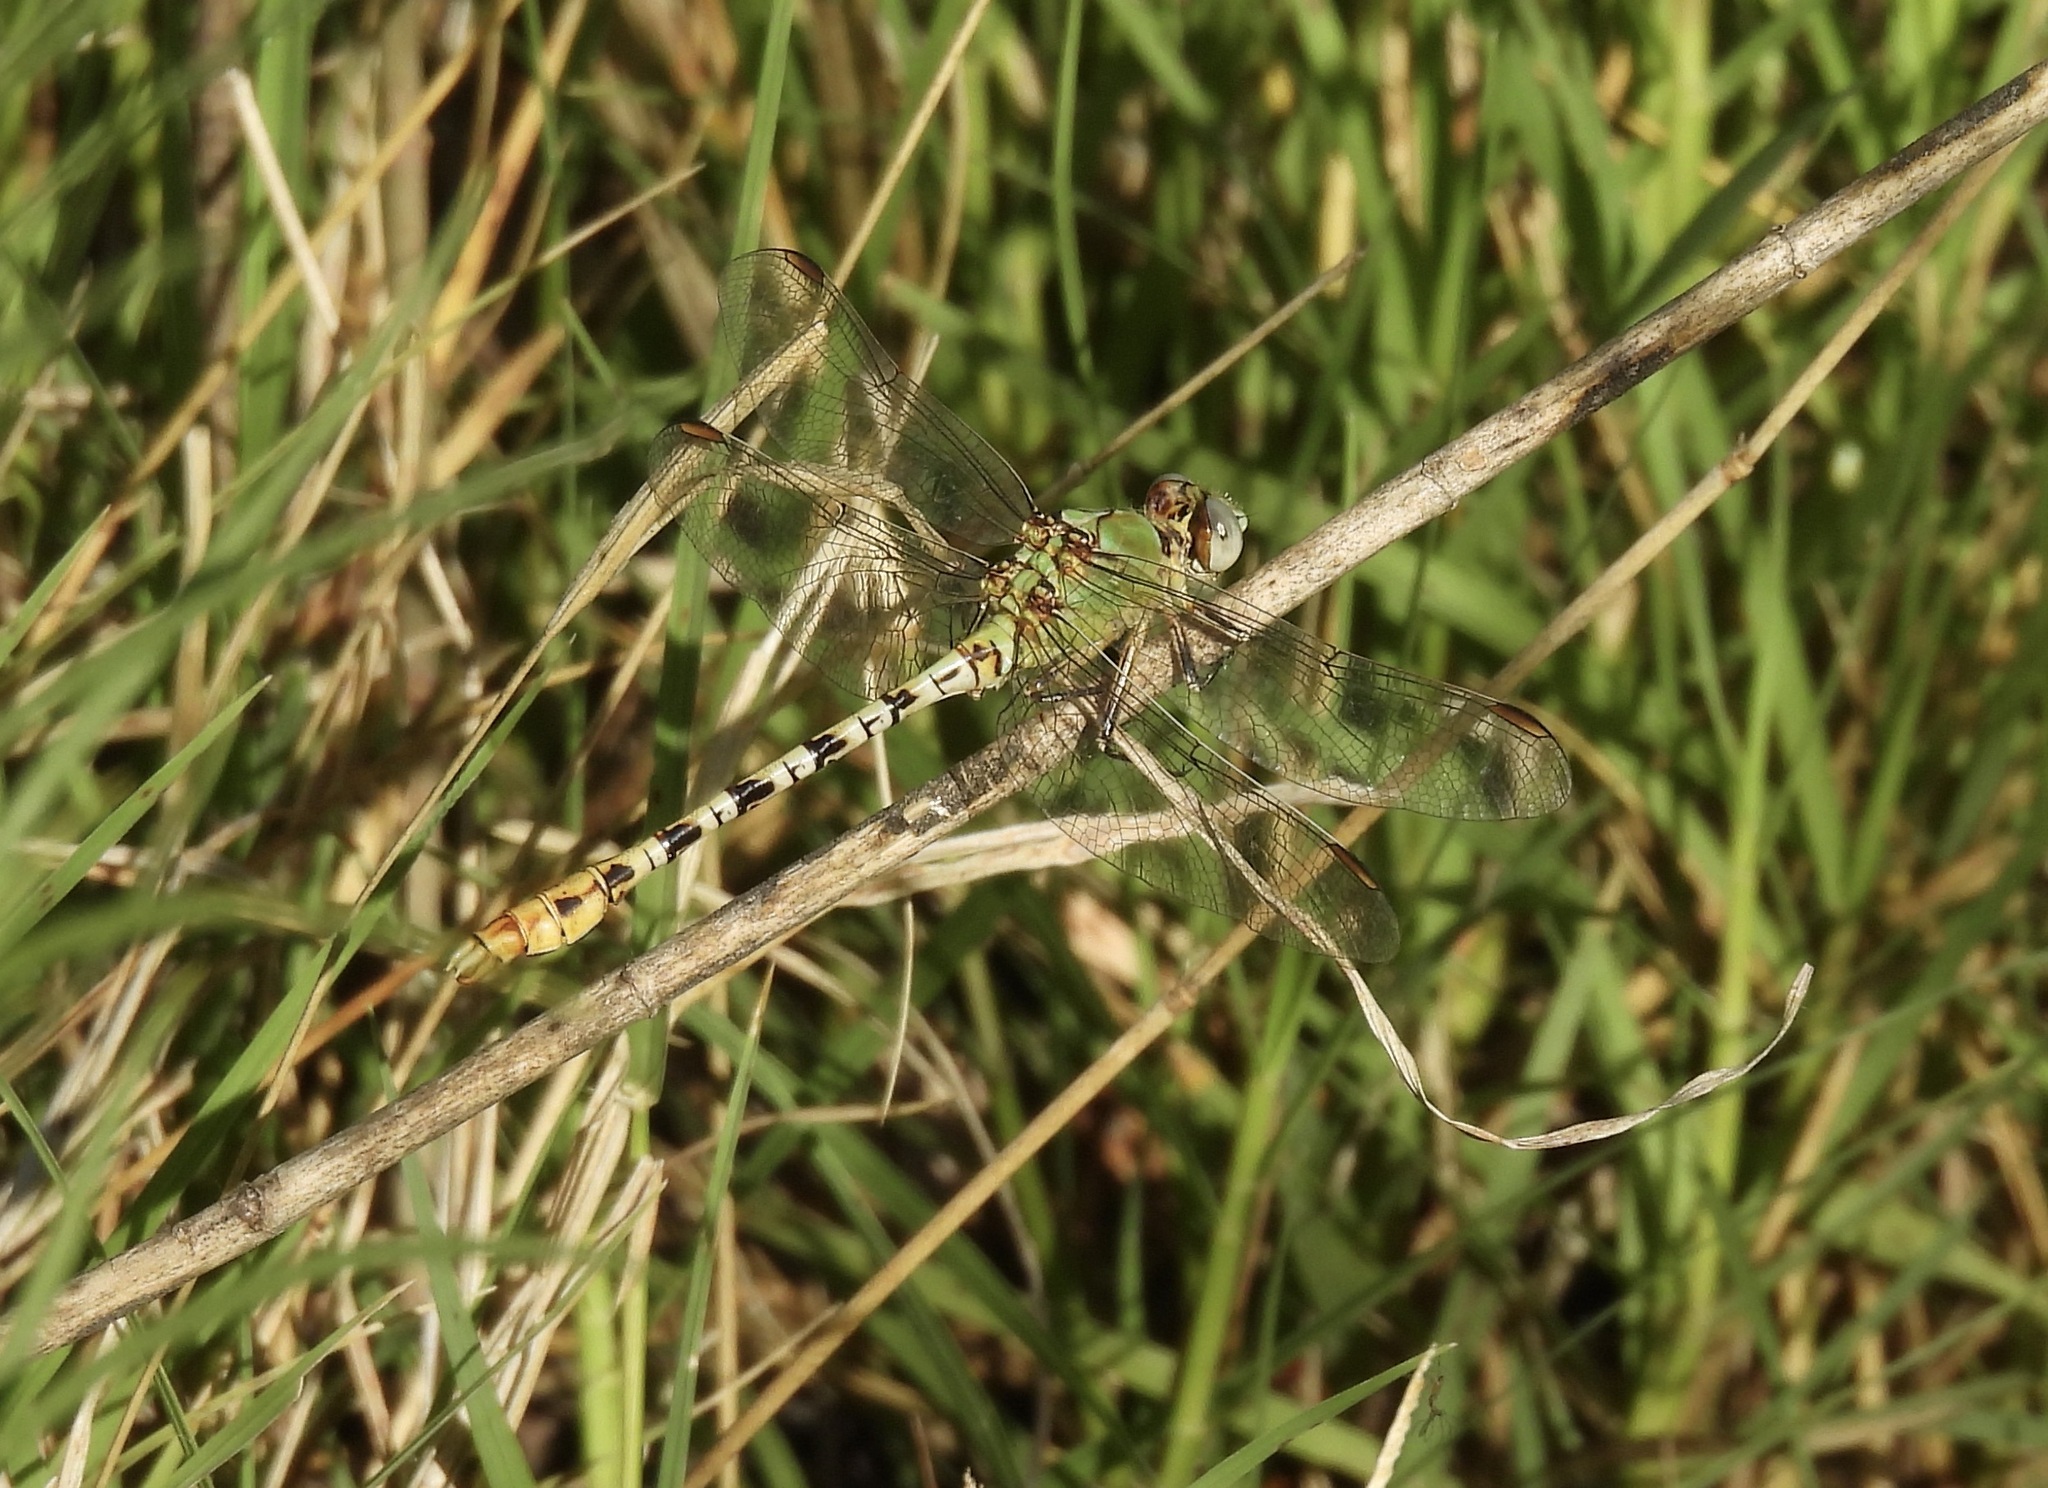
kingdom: Animalia
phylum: Arthropoda
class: Insecta
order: Odonata
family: Gomphidae
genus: Erpetogomphus
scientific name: Erpetogomphus crotalinus
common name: Yellow-legged ringtail
